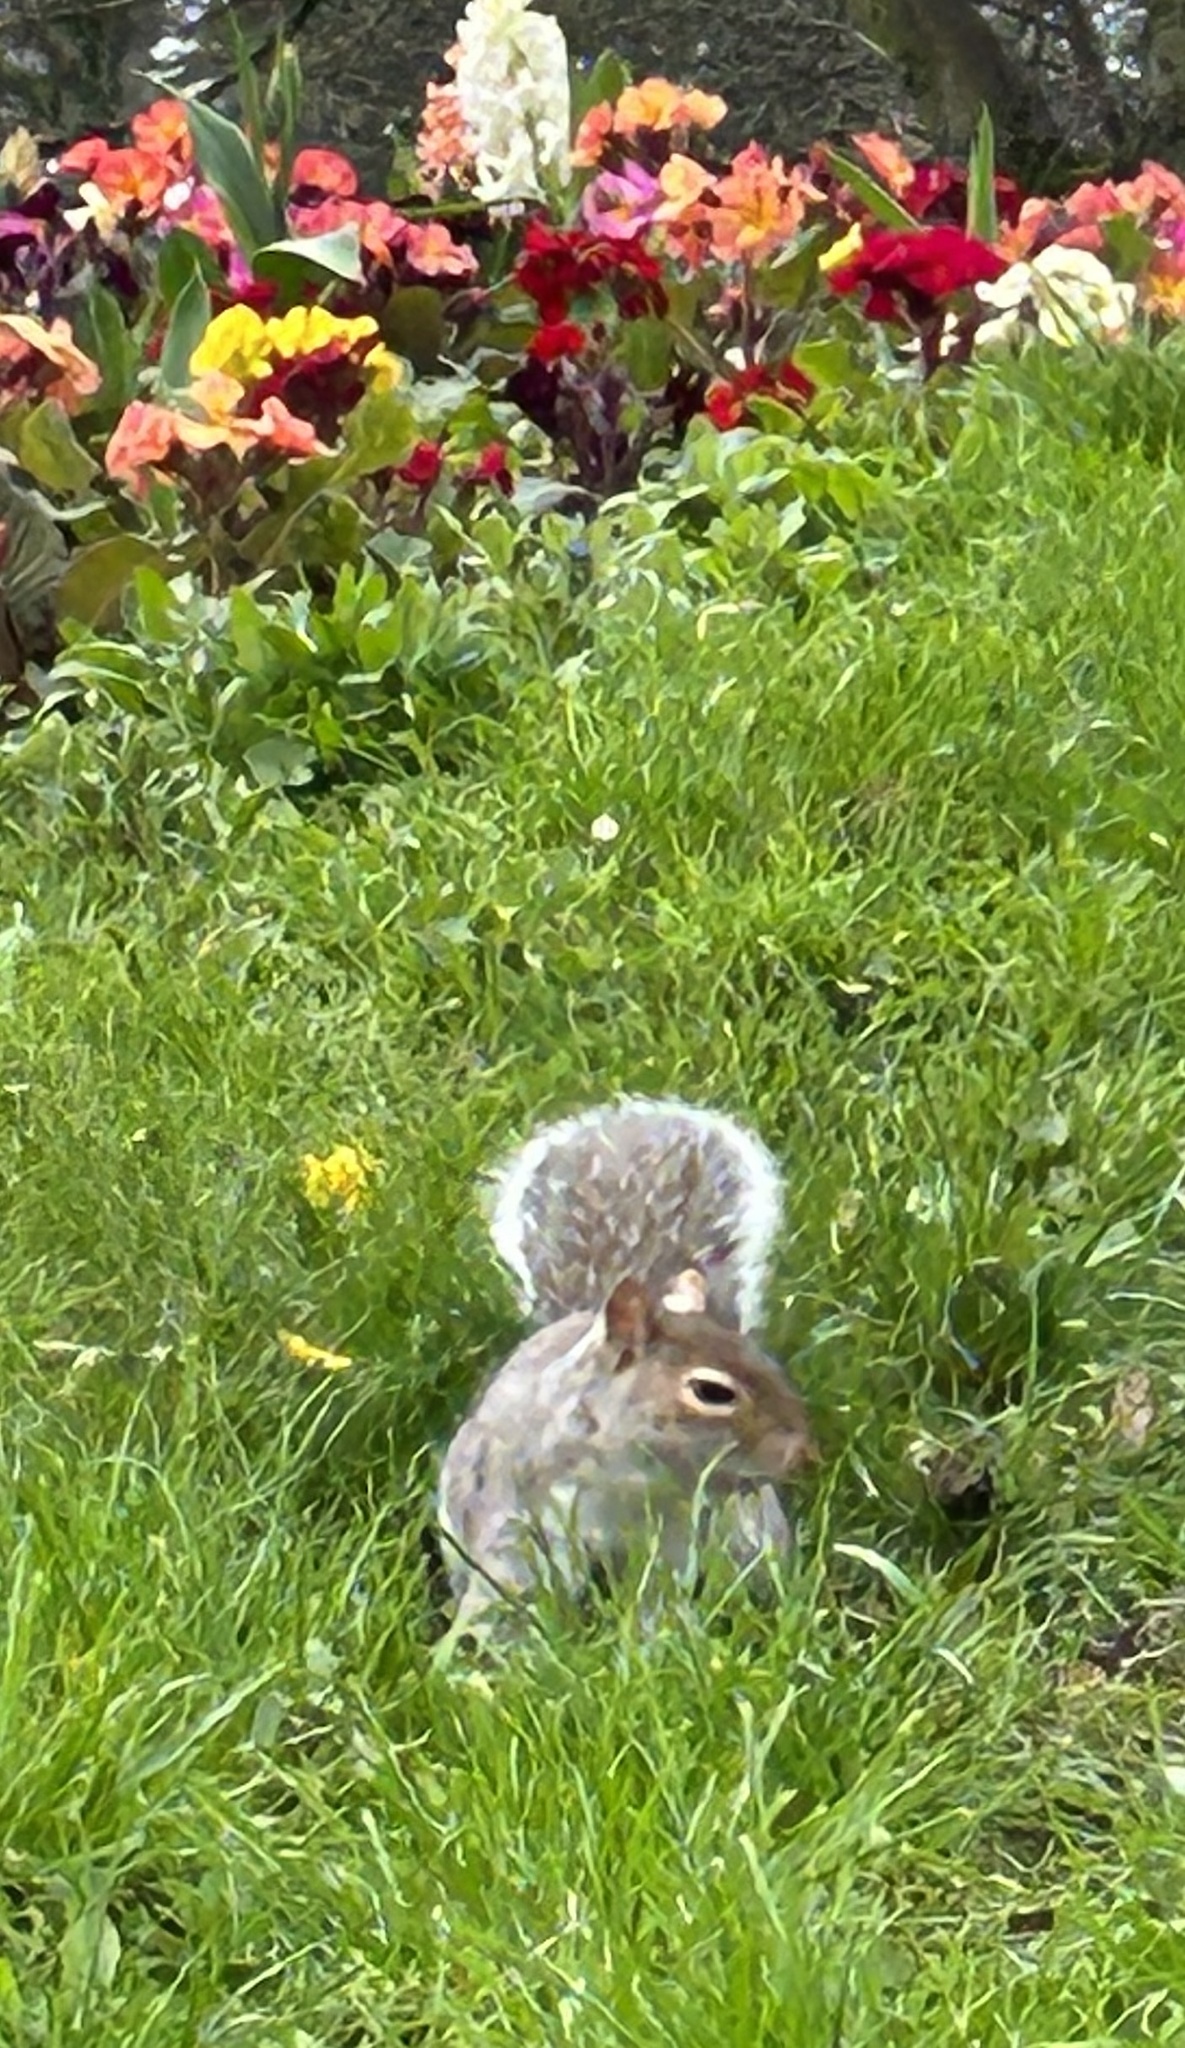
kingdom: Animalia
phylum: Chordata
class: Mammalia
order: Rodentia
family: Sciuridae
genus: Sciurus
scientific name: Sciurus carolinensis
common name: Eastern gray squirrel
